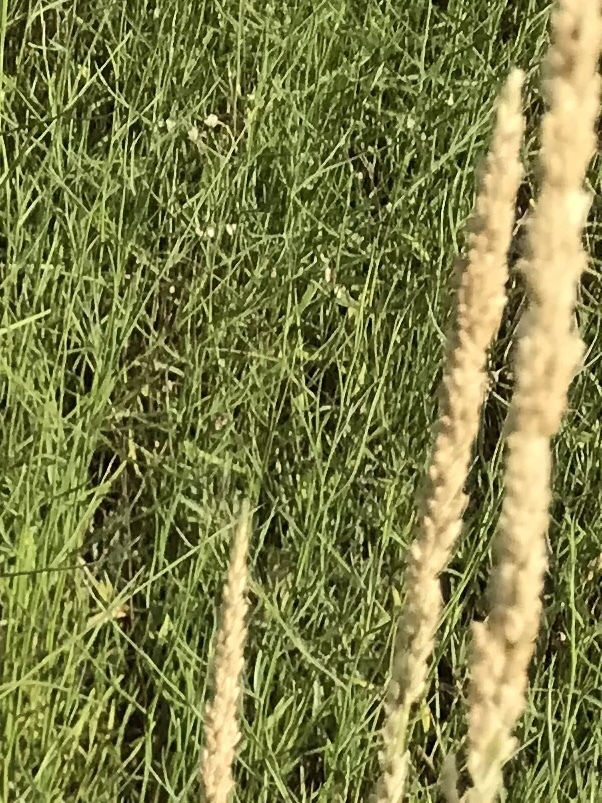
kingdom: Plantae
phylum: Tracheophyta
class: Liliopsida
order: Poales
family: Poaceae
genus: Tridens
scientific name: Tridens albescens
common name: White tridens
